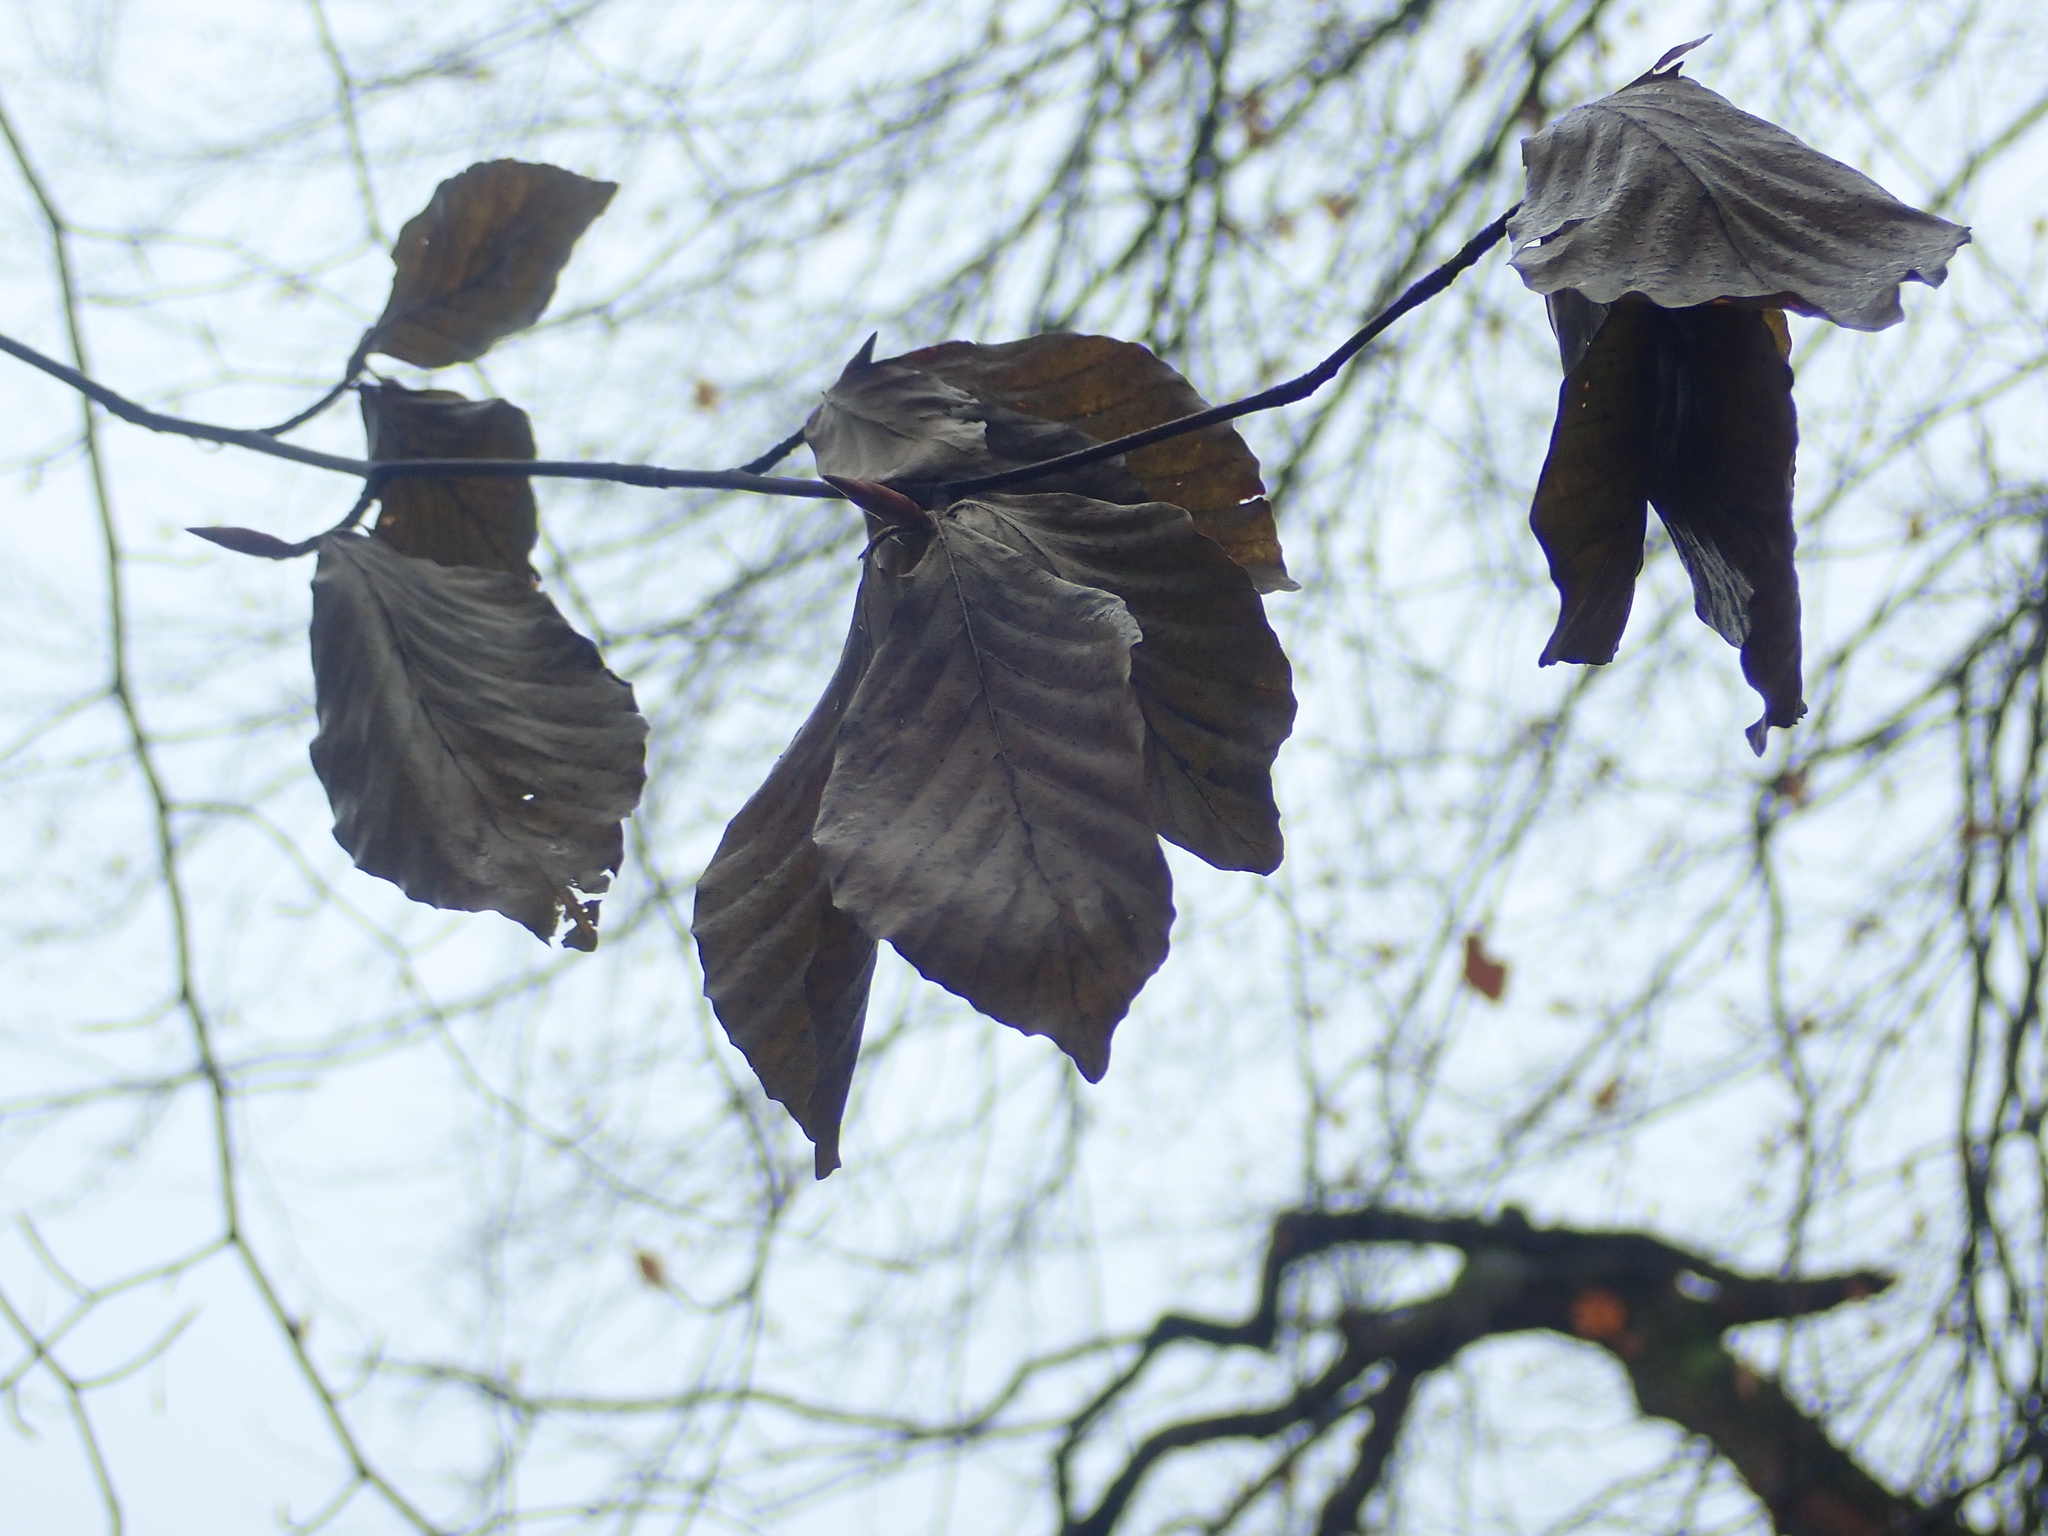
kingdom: Plantae
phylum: Tracheophyta
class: Magnoliopsida
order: Fagales
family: Fagaceae
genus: Fagus
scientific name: Fagus sylvatica
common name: Beech
